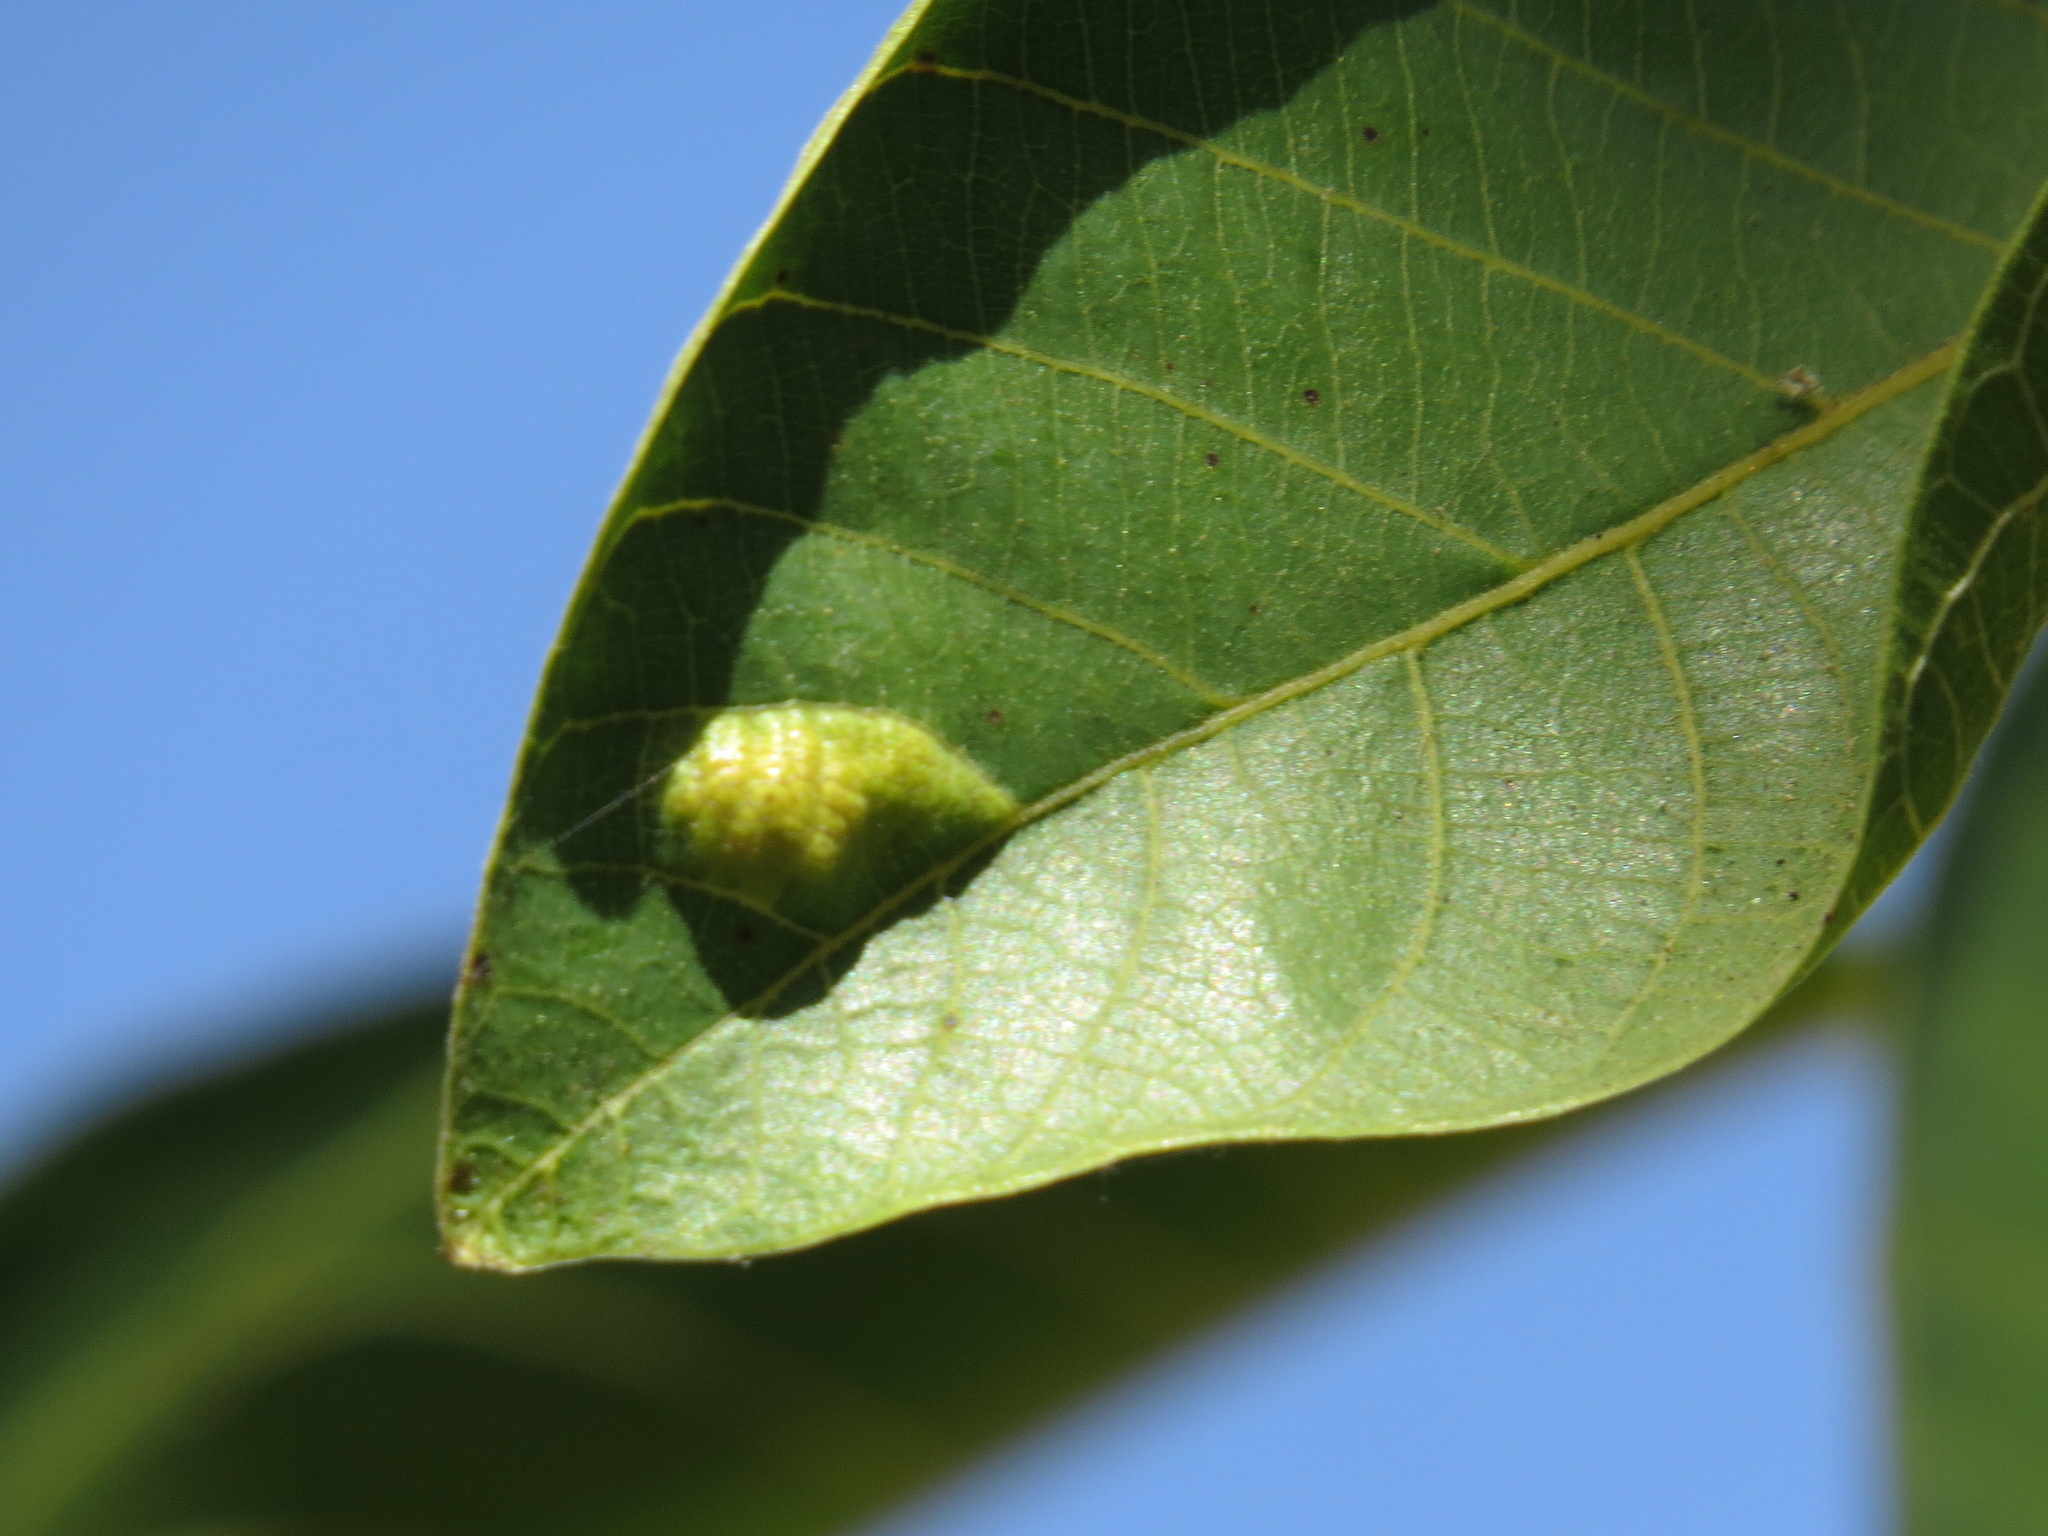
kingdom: Animalia
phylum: Arthropoda
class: Arachnida
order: Trombidiformes
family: Eriophyidae
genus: Aceria
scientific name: Aceria erinea
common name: Persian walnut erineum mite
